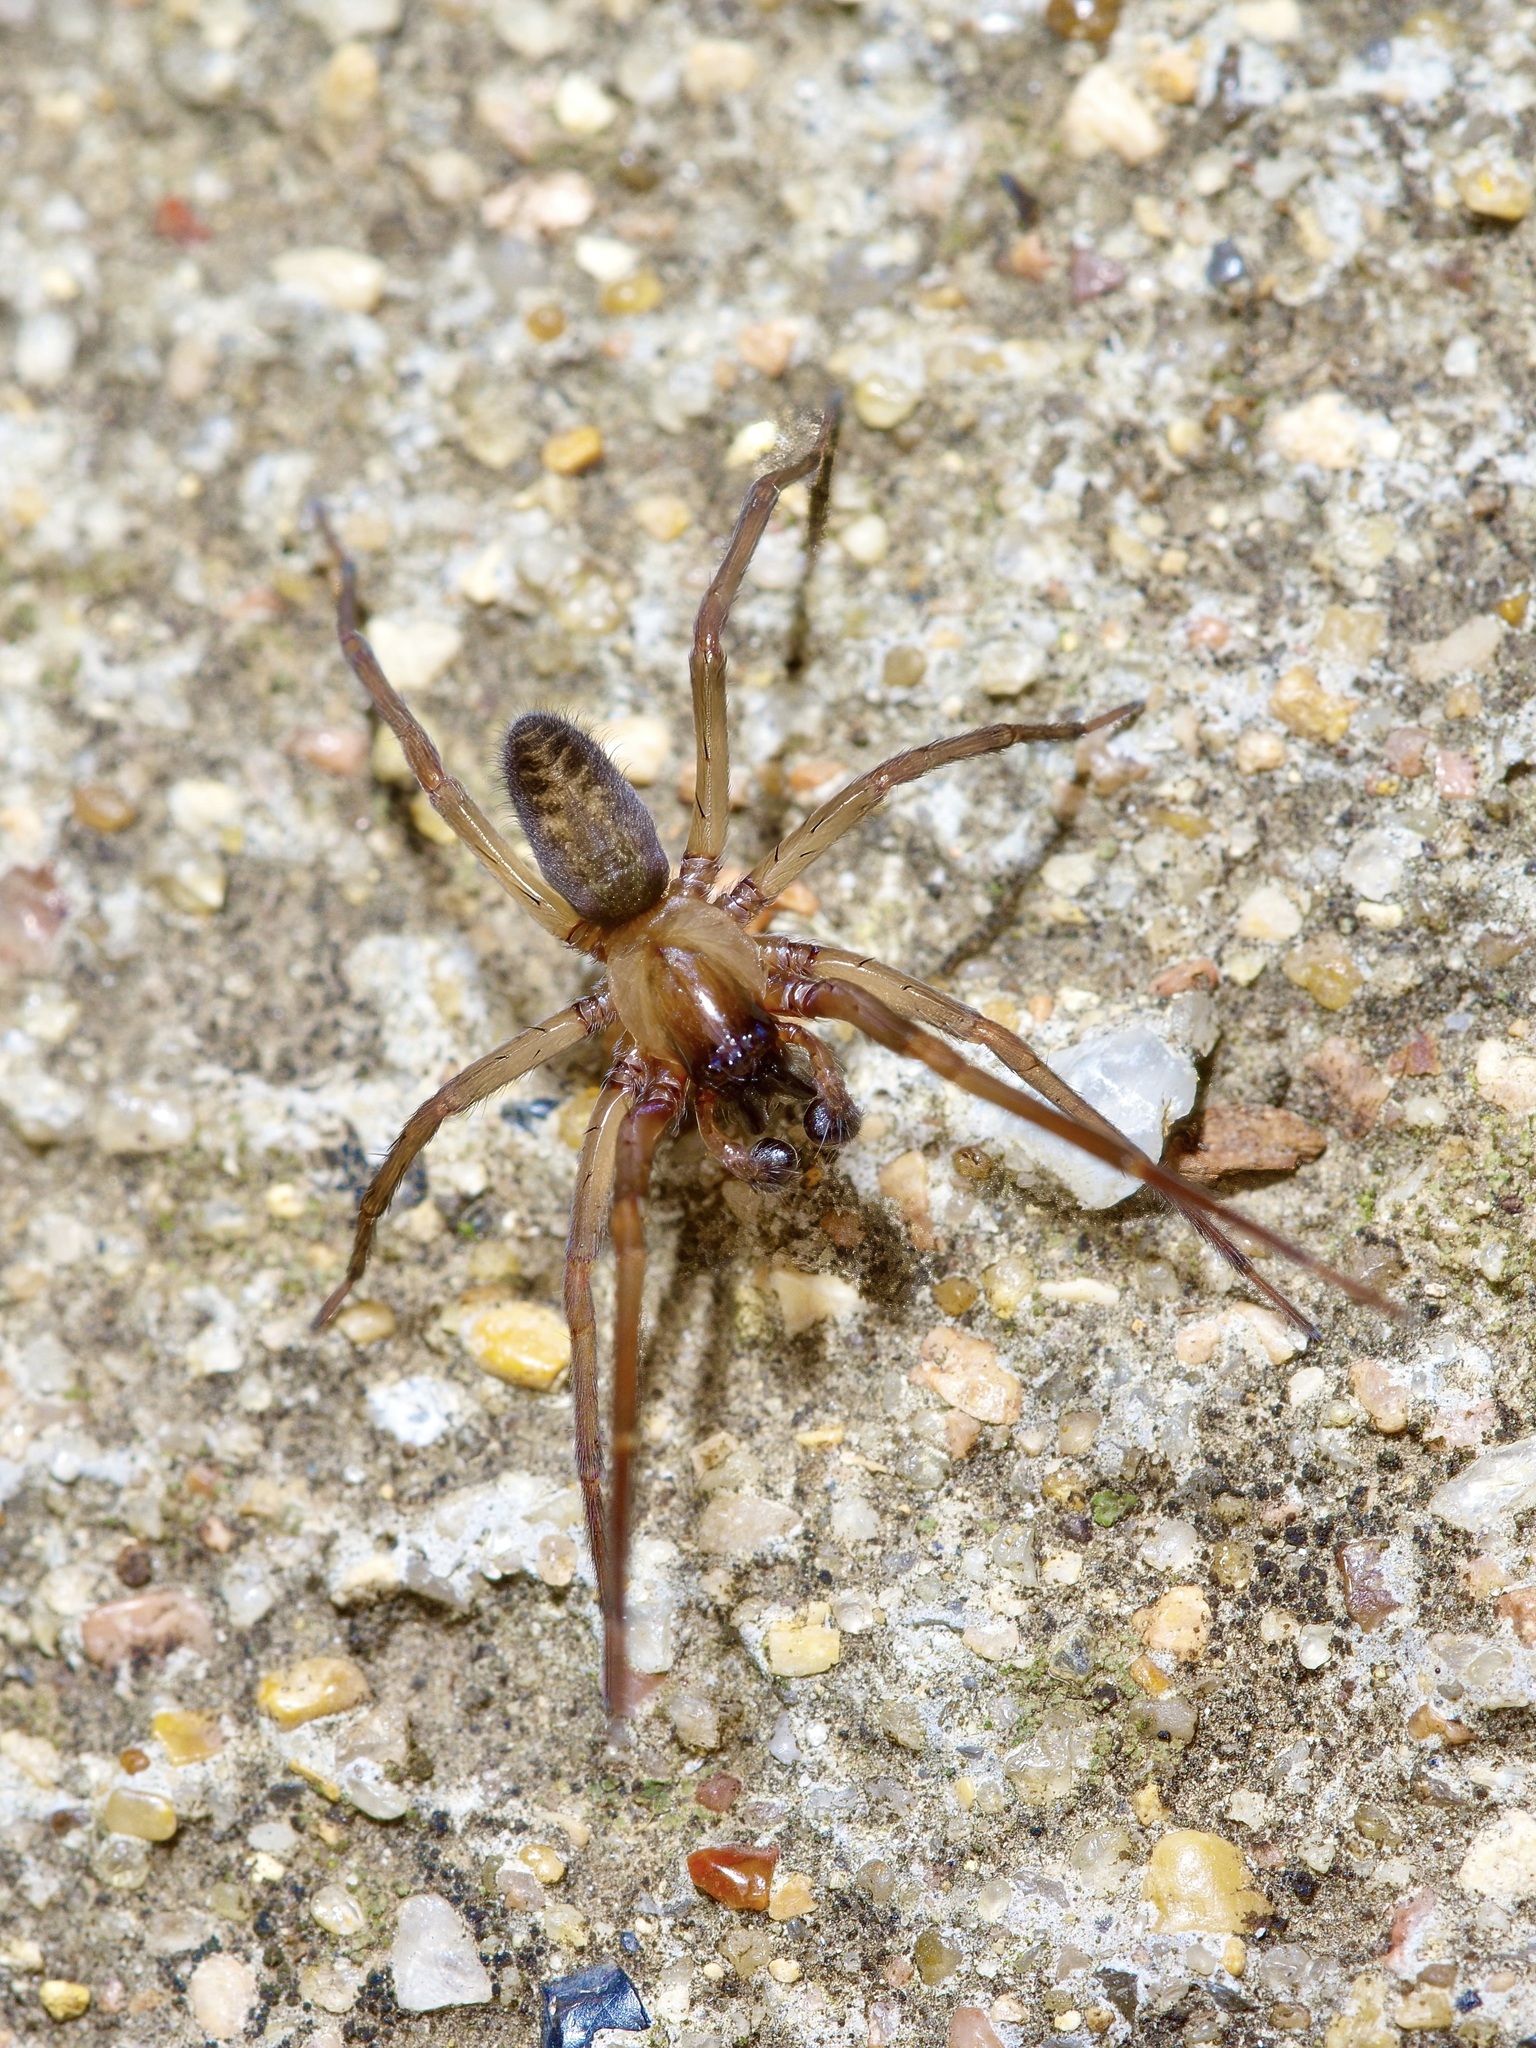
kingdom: Animalia
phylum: Arthropoda
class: Arachnida
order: Araneae
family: Desidae
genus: Metaltella
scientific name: Metaltella simoni
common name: Cribellate spider
